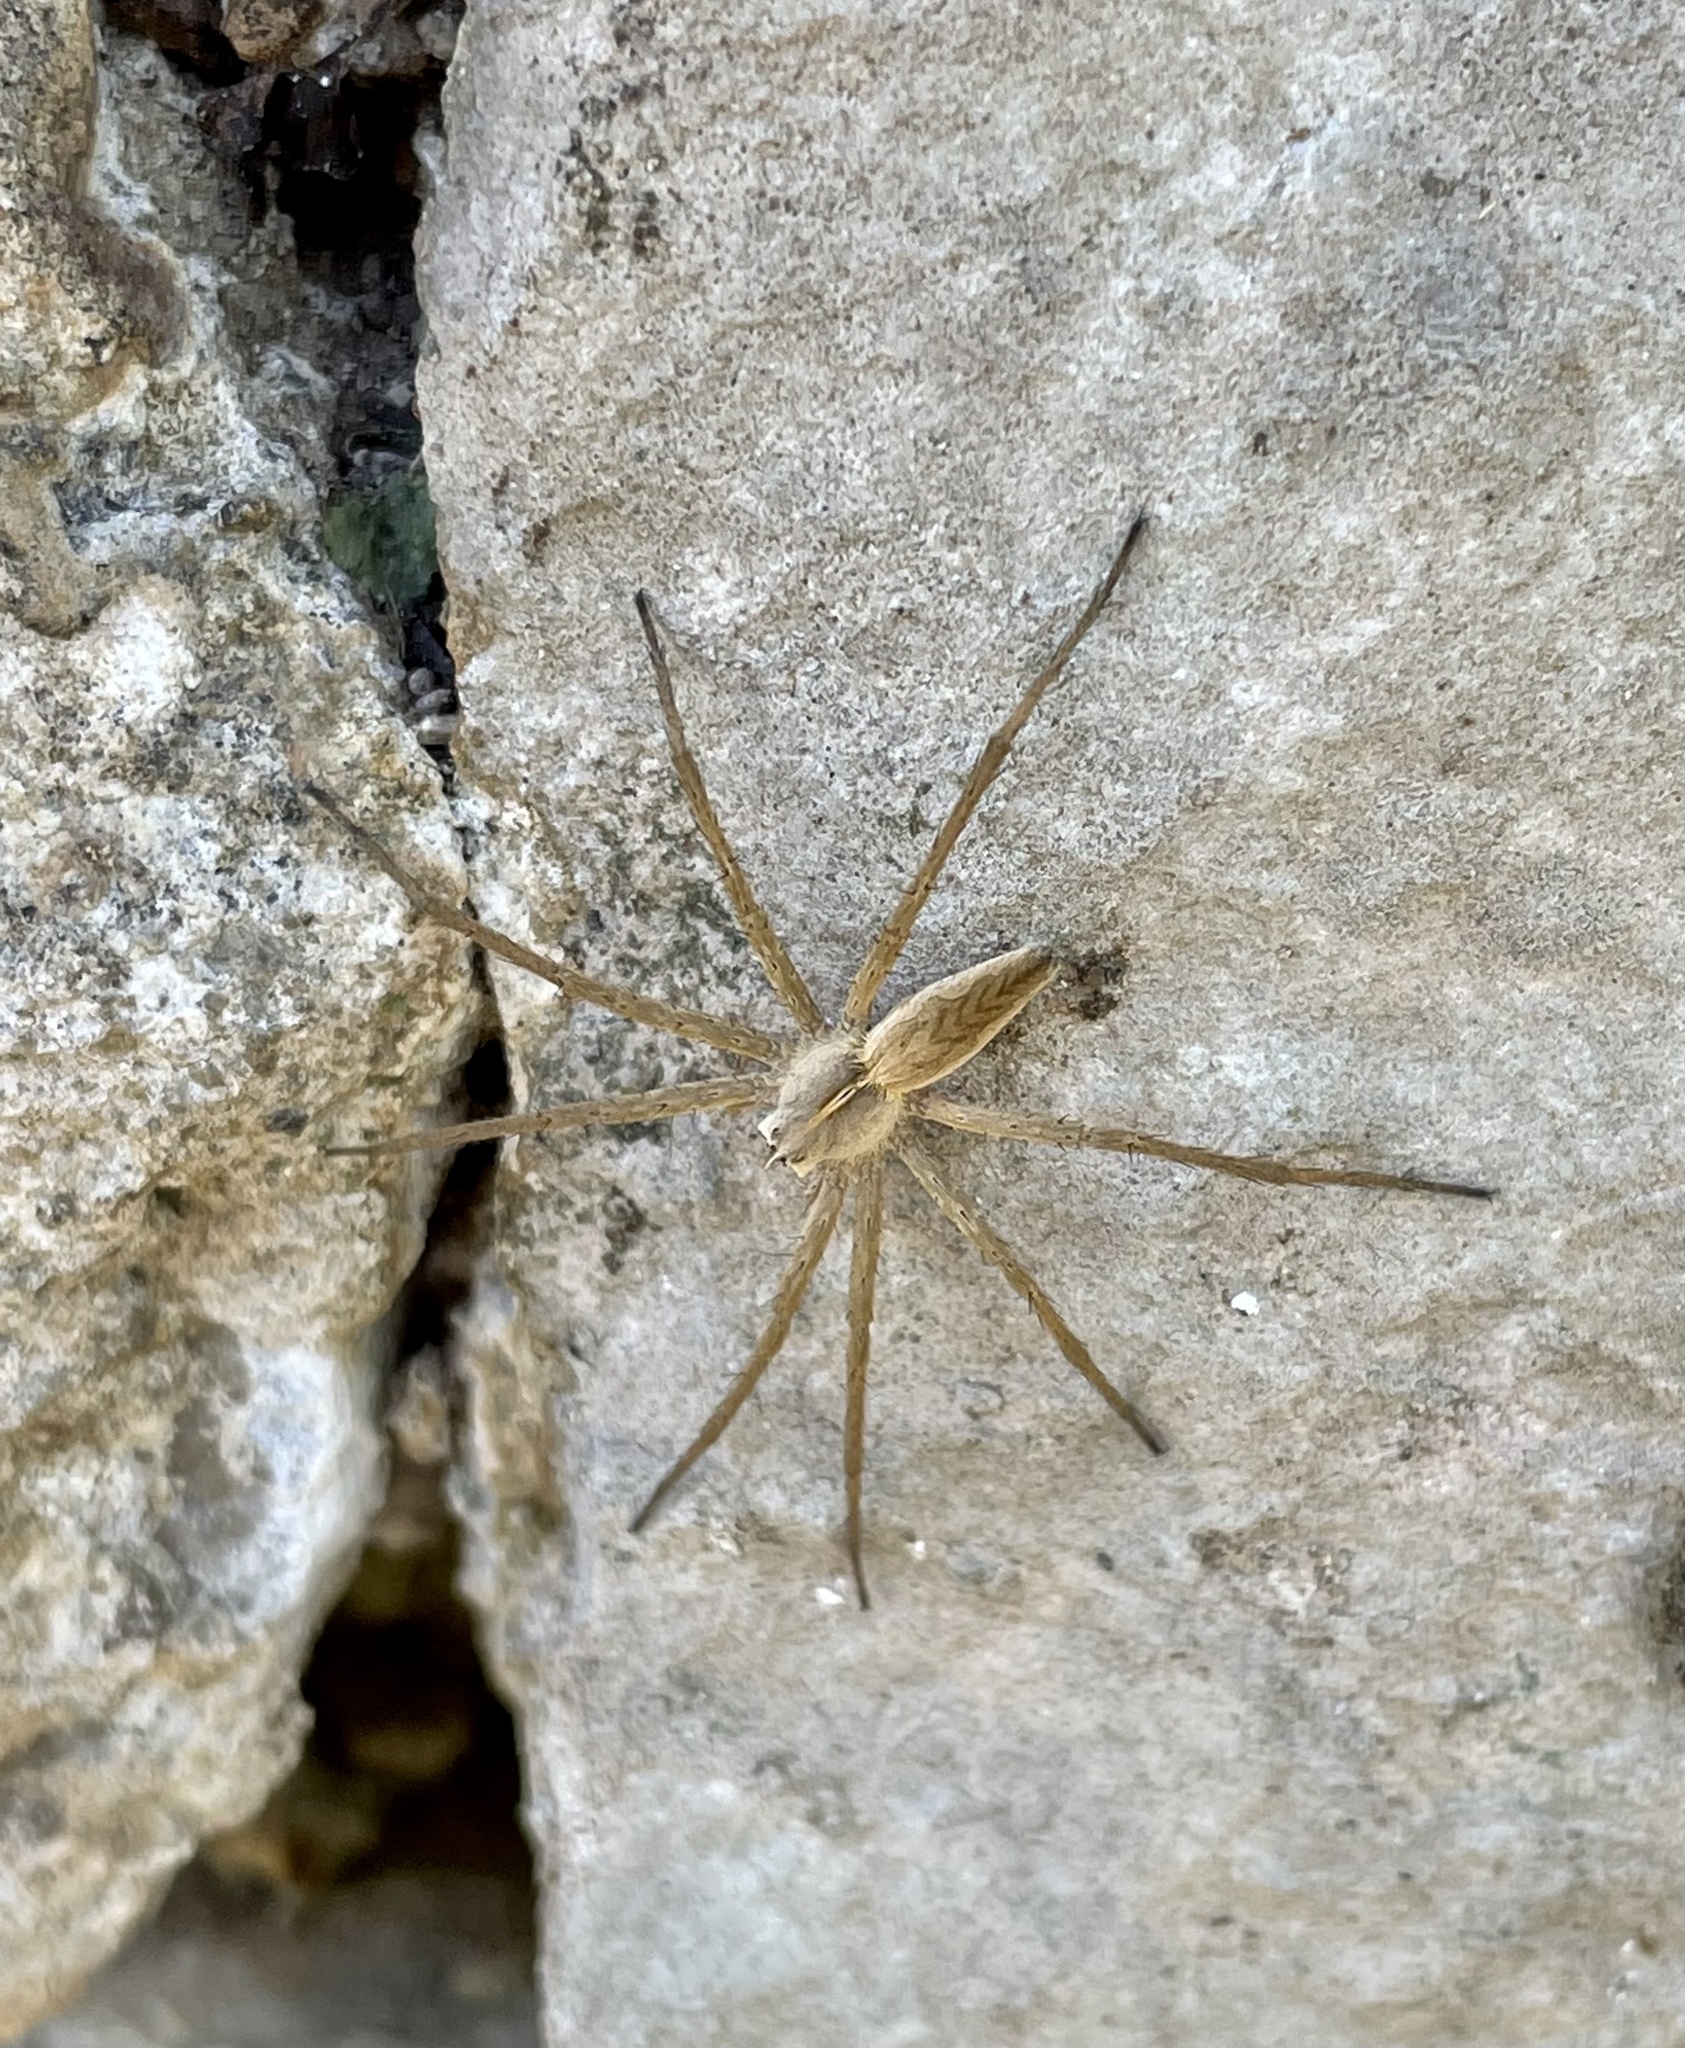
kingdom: Animalia
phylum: Arthropoda
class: Arachnida
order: Araneae
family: Pisauridae
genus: Pisaura
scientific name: Pisaura mirabilis
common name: Tent spider
